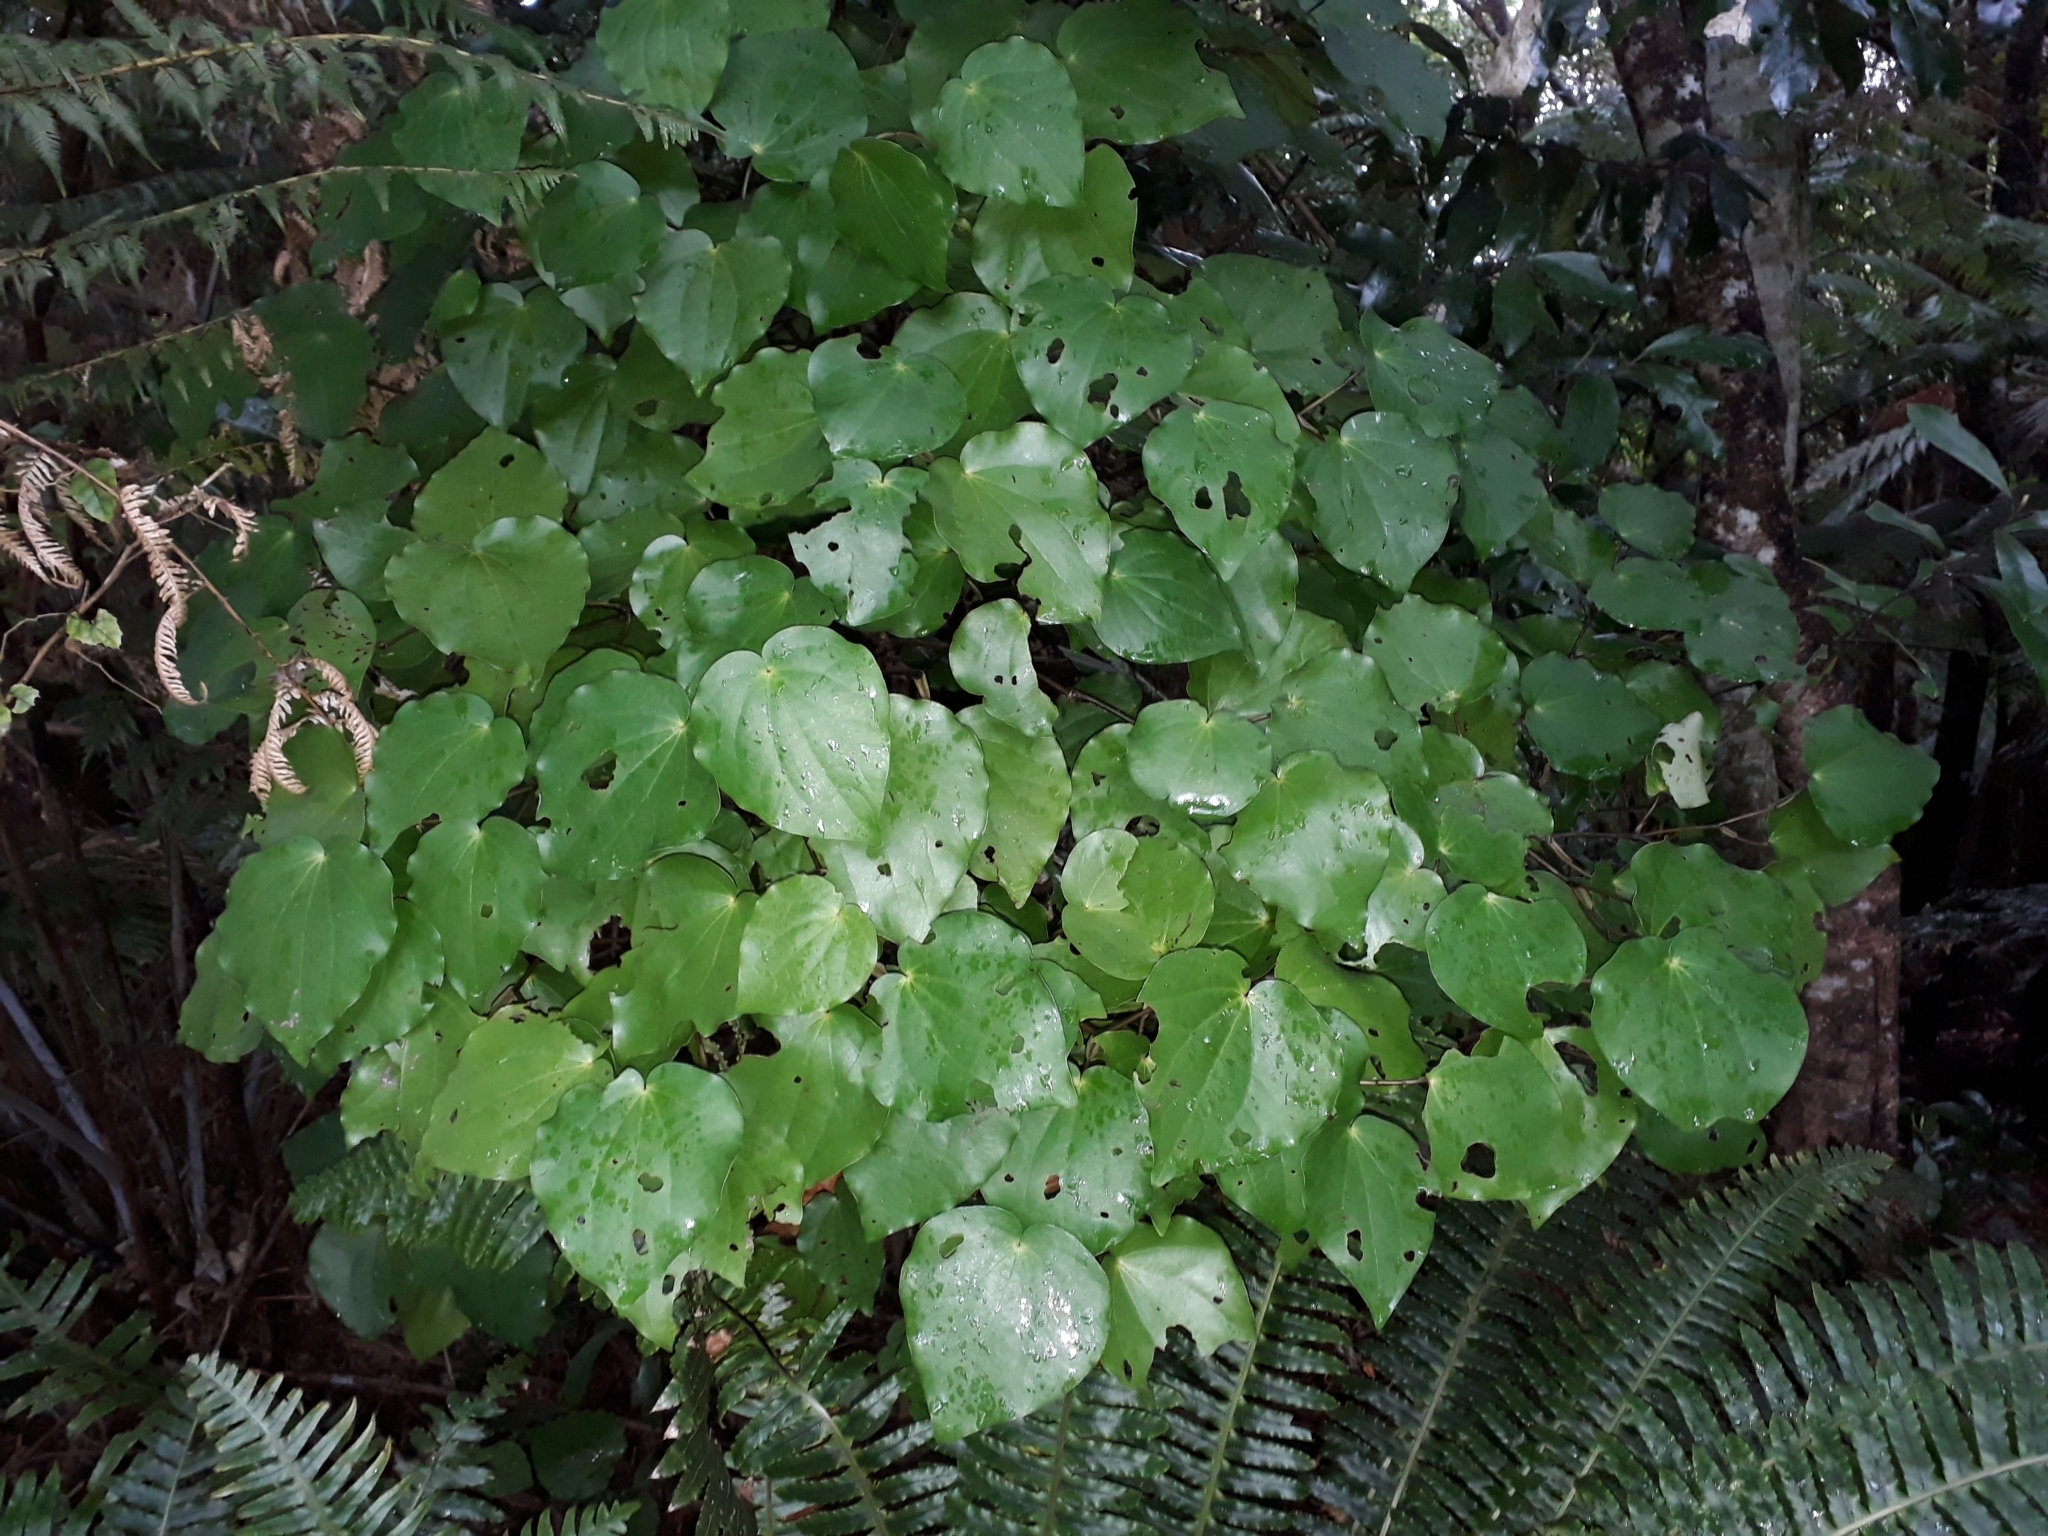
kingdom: Plantae
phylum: Tracheophyta
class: Magnoliopsida
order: Piperales
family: Piperaceae
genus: Macropiper
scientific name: Macropiper excelsum
